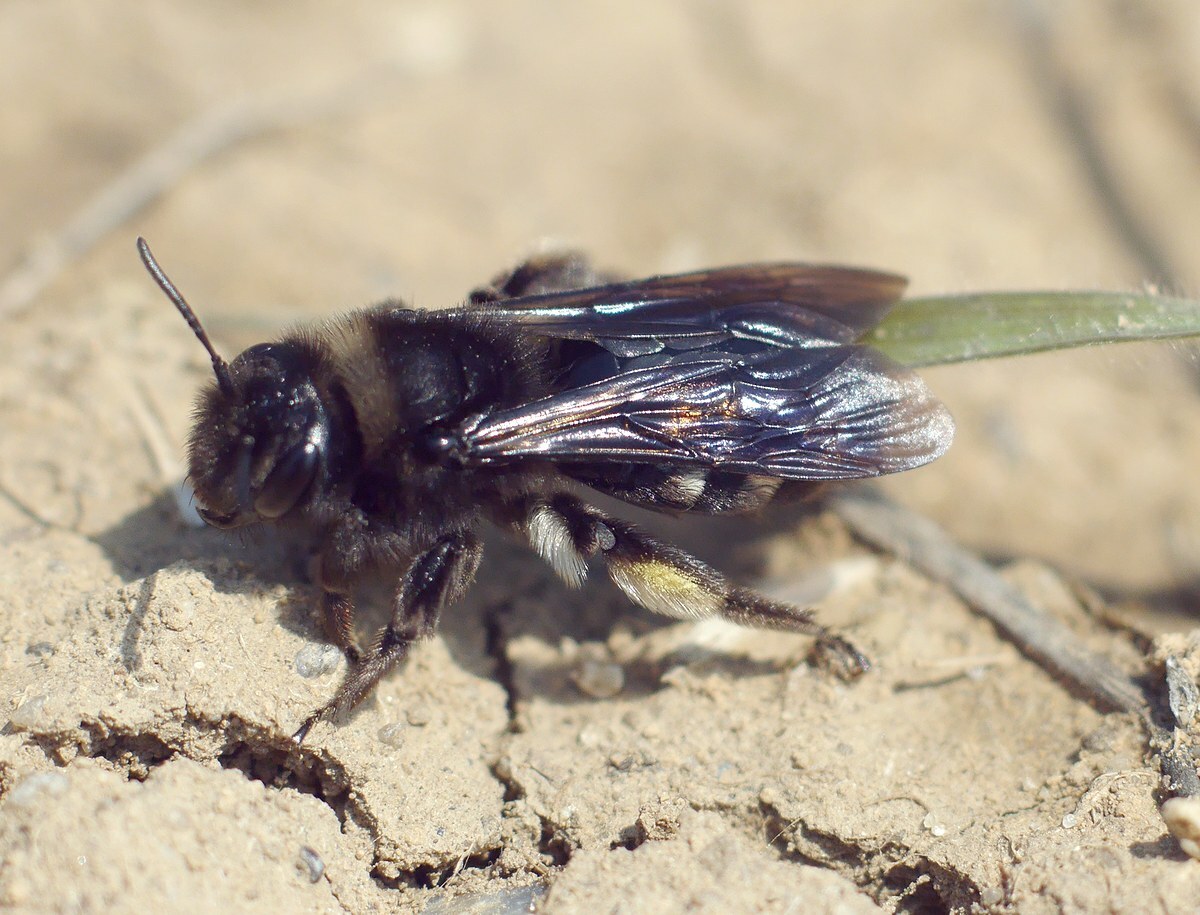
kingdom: Animalia
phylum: Arthropoda
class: Insecta
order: Hymenoptera
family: Andrenidae
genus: Andrena
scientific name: Andrena magna
